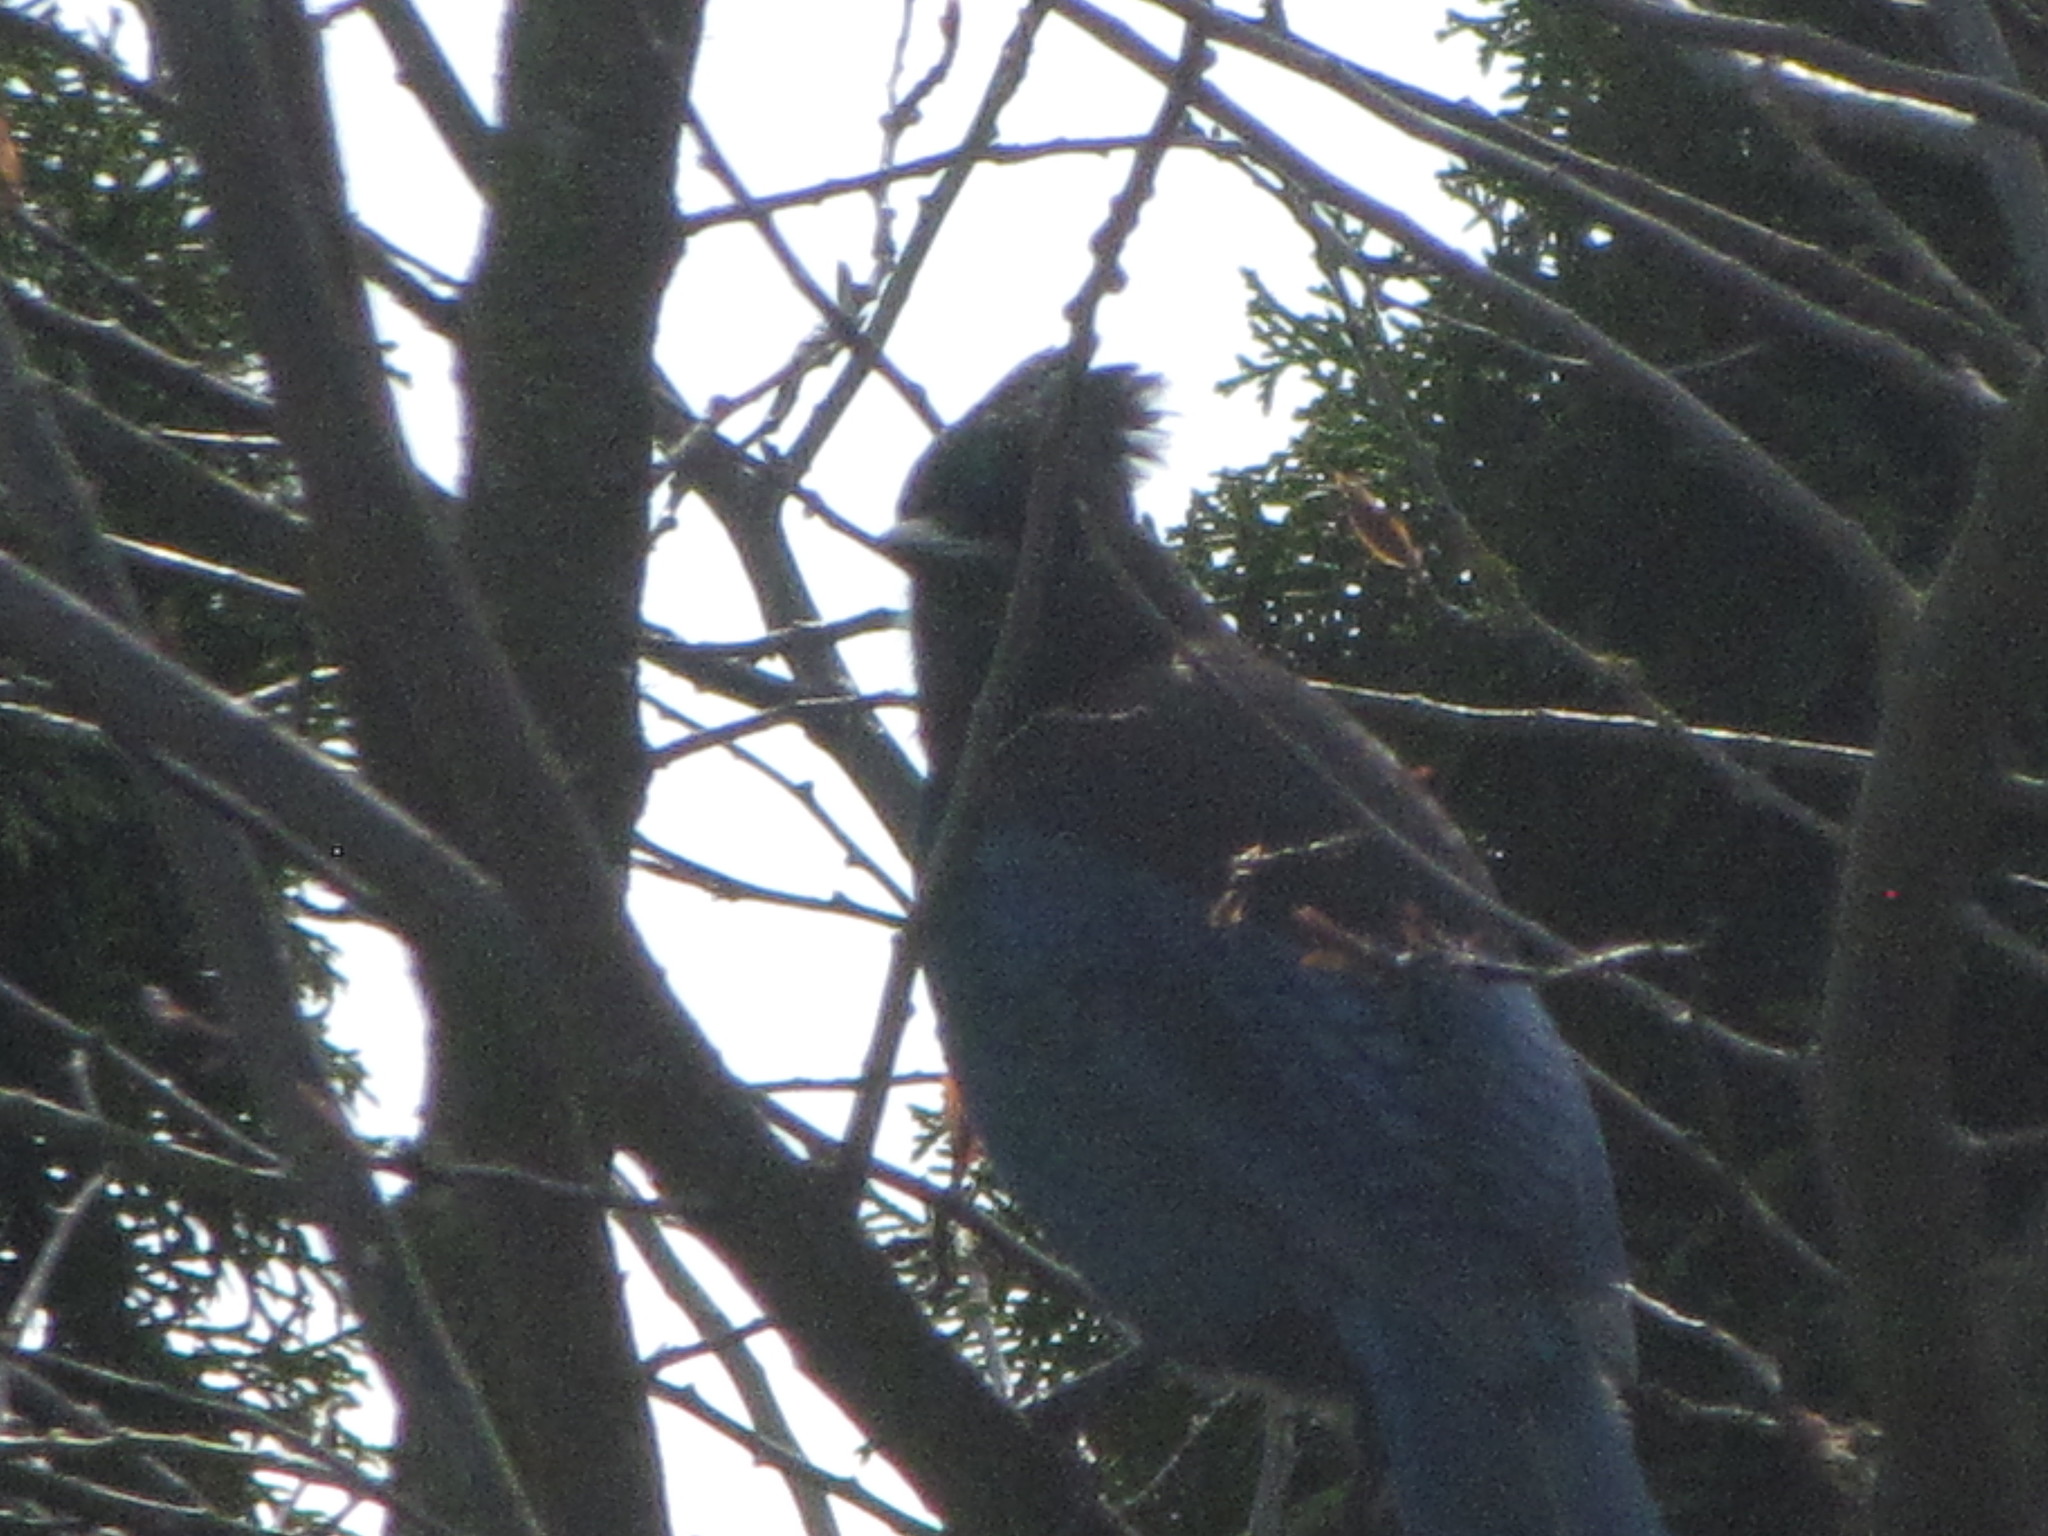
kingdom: Animalia
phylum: Chordata
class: Aves
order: Passeriformes
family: Corvidae
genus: Cyanocitta
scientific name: Cyanocitta stelleri
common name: Steller's jay
